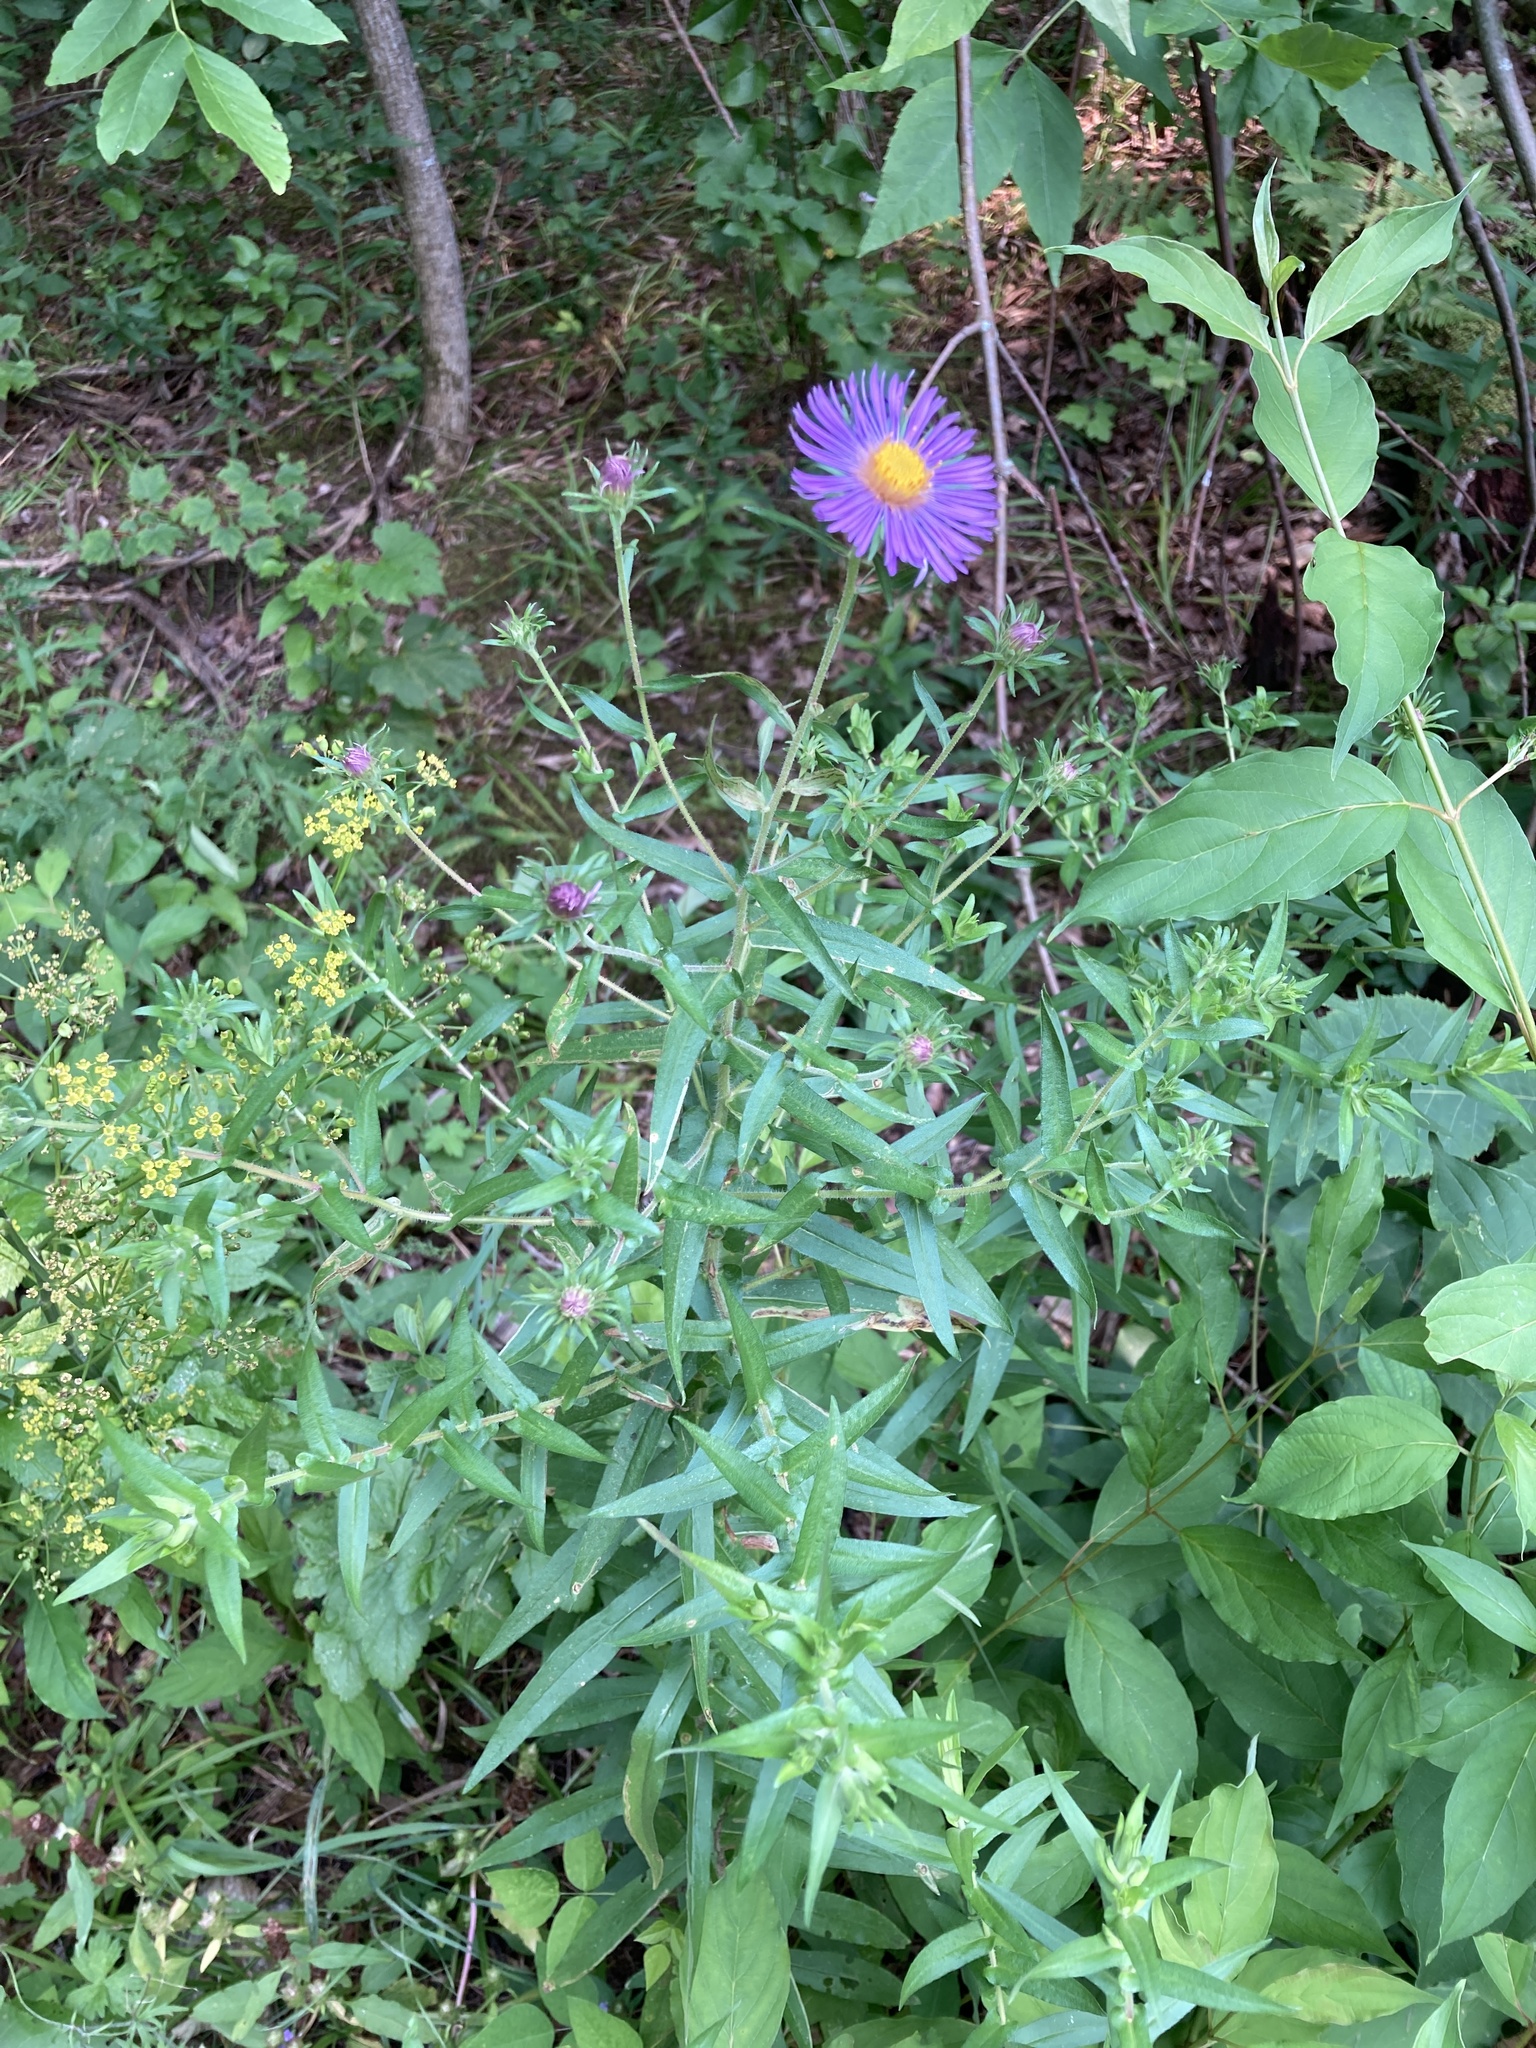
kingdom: Plantae
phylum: Tracheophyta
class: Magnoliopsida
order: Asterales
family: Asteraceae
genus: Symphyotrichum
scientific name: Symphyotrichum novae-angliae
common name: Michaelmas daisy
